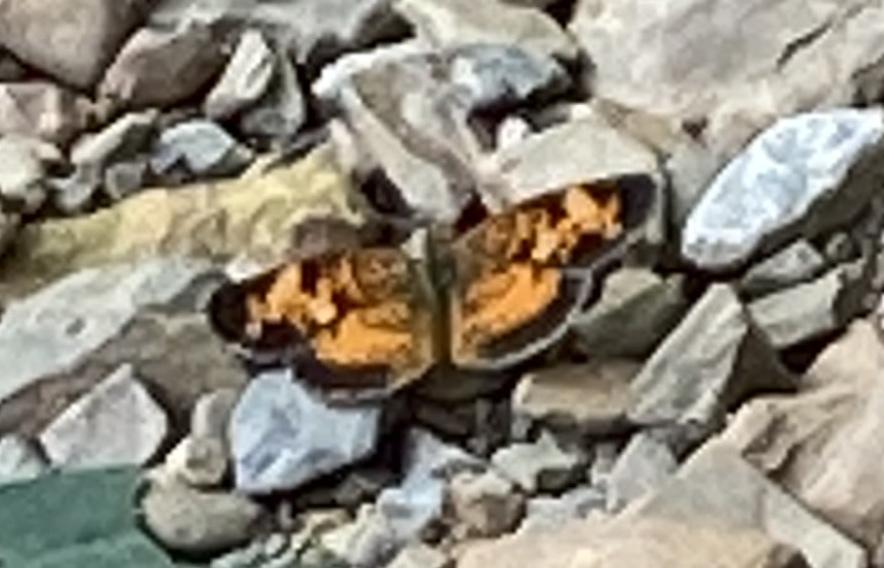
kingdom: Animalia
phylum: Arthropoda
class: Insecta
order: Lepidoptera
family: Nymphalidae
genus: Phyciodes
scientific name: Phyciodes tharos
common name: Pearl crescent
